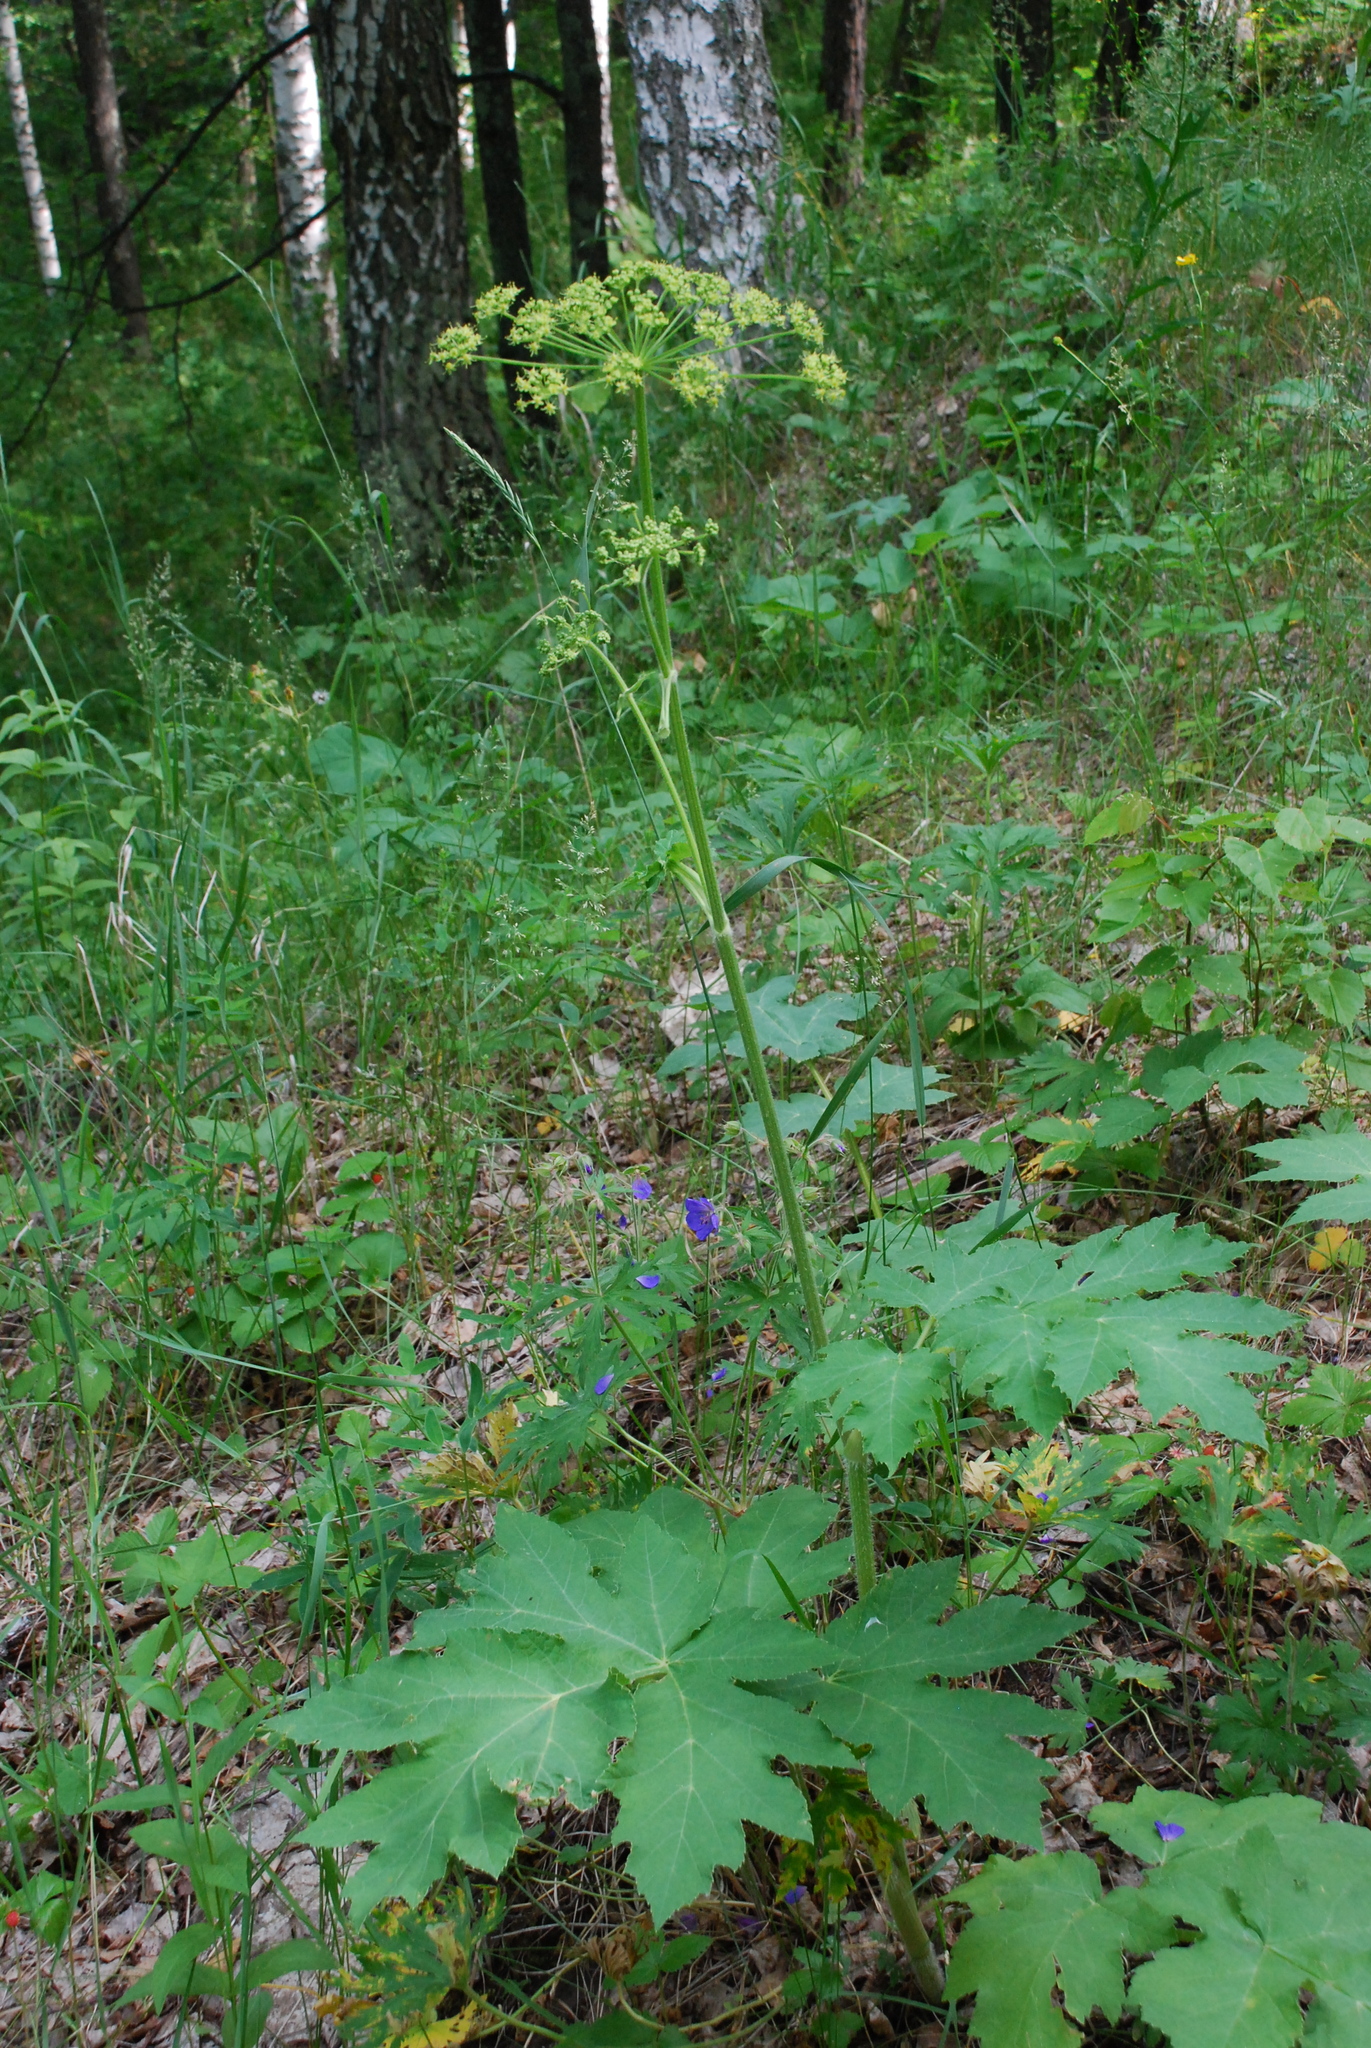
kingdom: Plantae
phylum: Tracheophyta
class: Magnoliopsida
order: Apiales
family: Apiaceae
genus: Heracleum
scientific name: Heracleum sphondylium
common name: Hogweed
